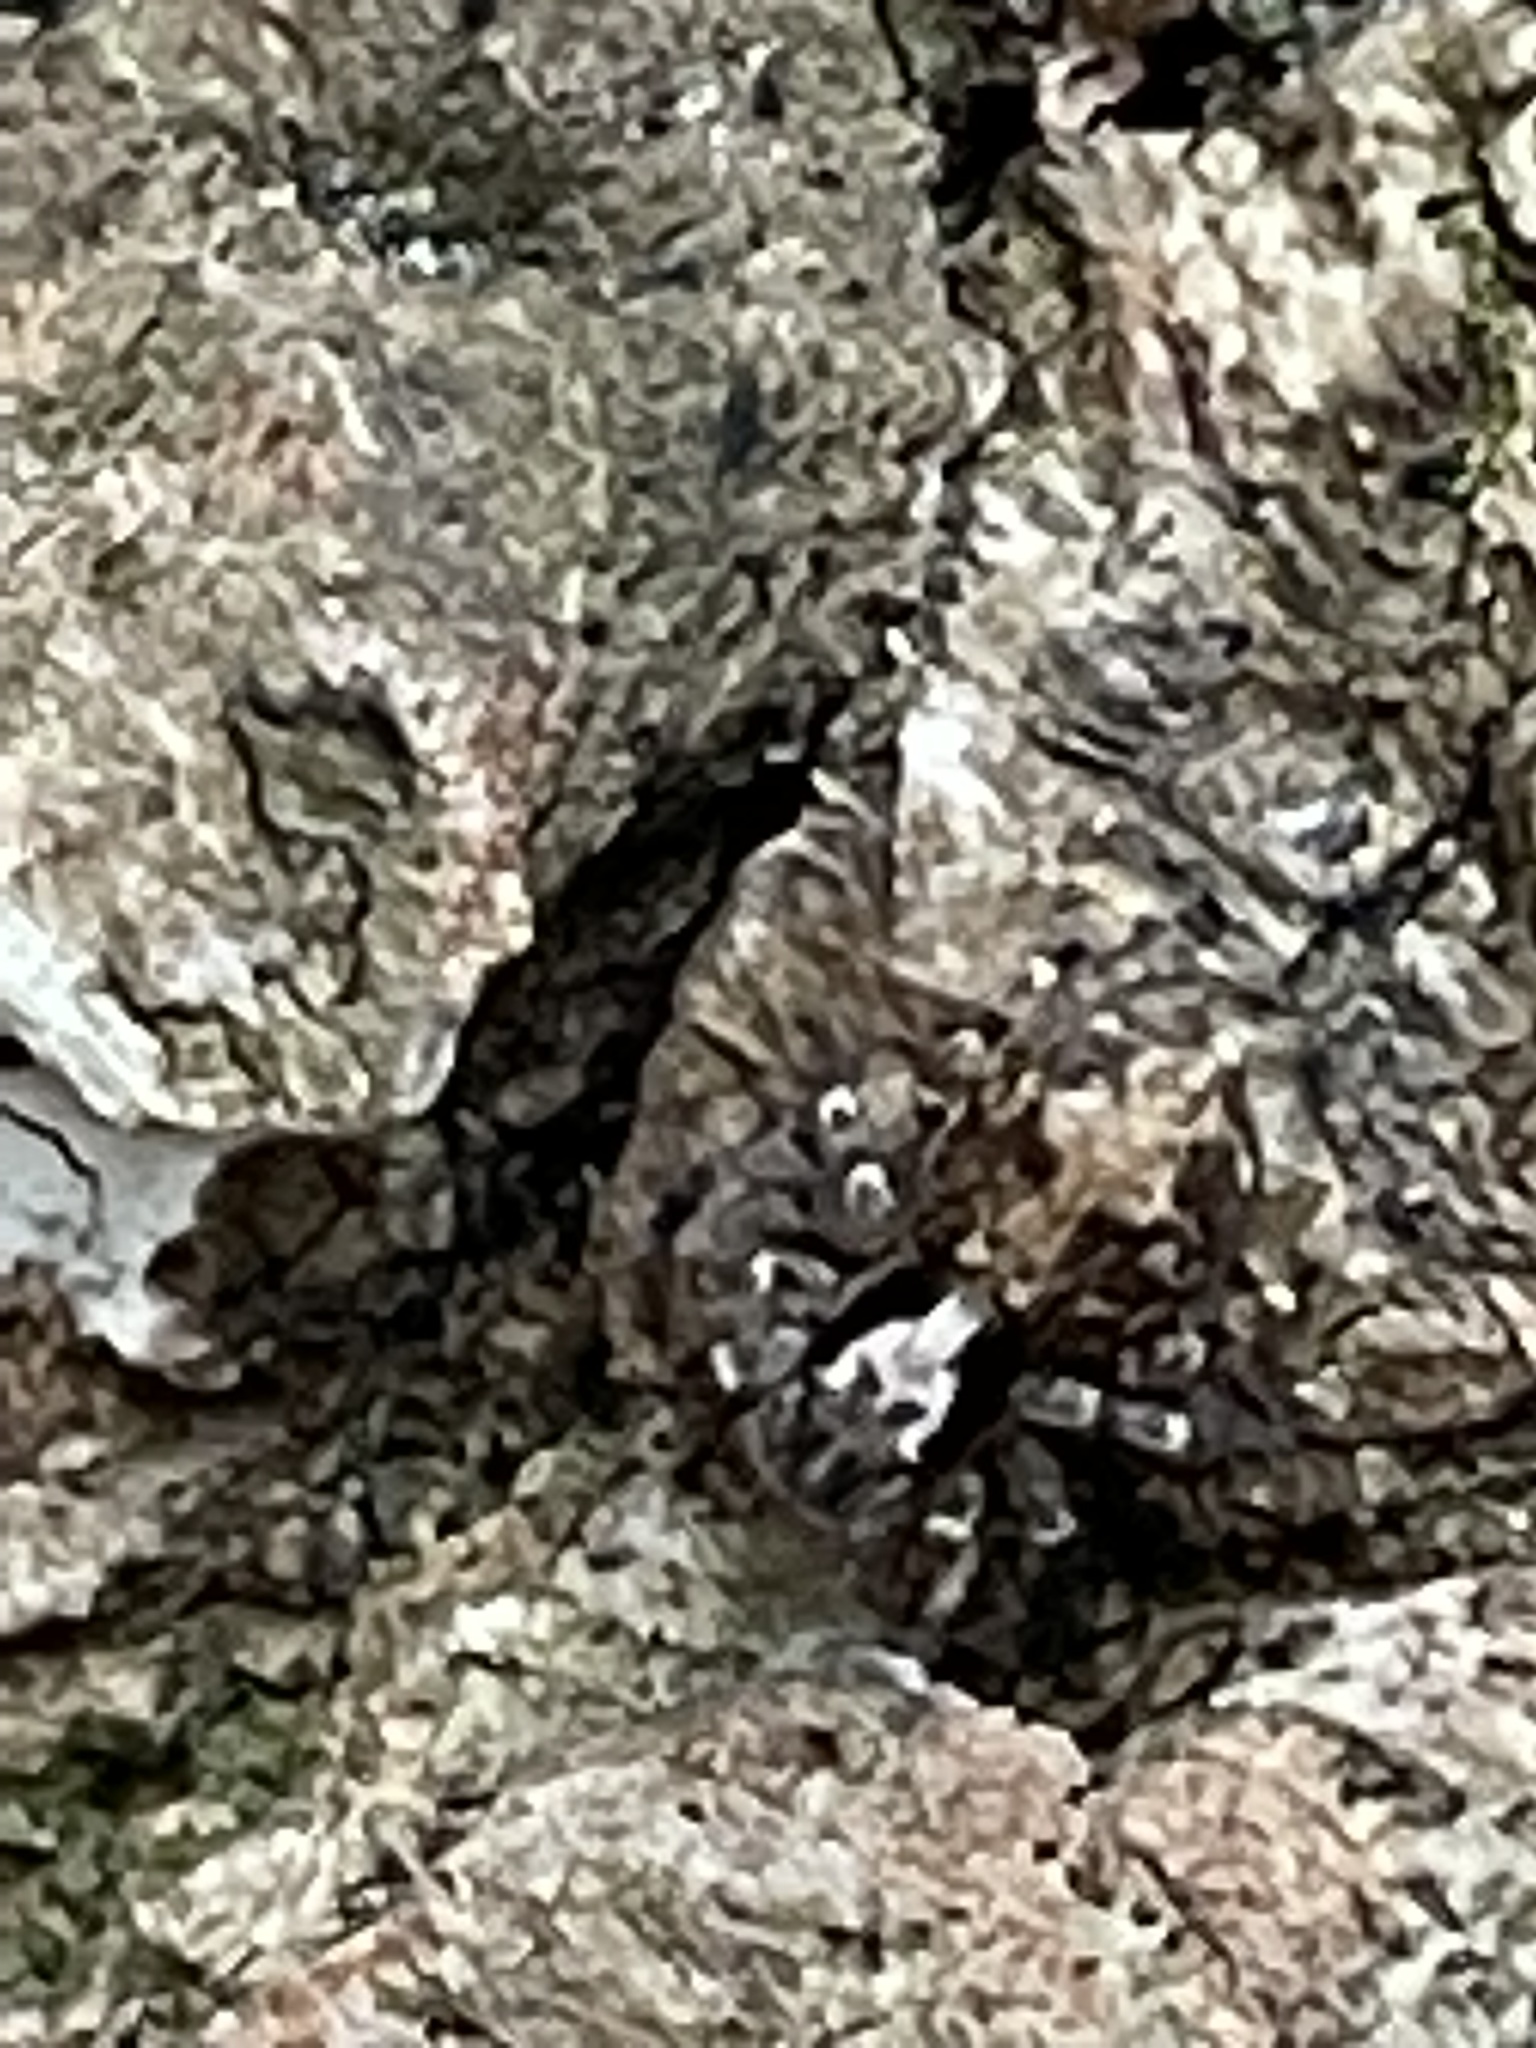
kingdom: Animalia
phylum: Arthropoda
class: Arachnida
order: Araneae
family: Salticidae
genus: Naphrys
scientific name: Naphrys pulex
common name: Flea jumping spider
